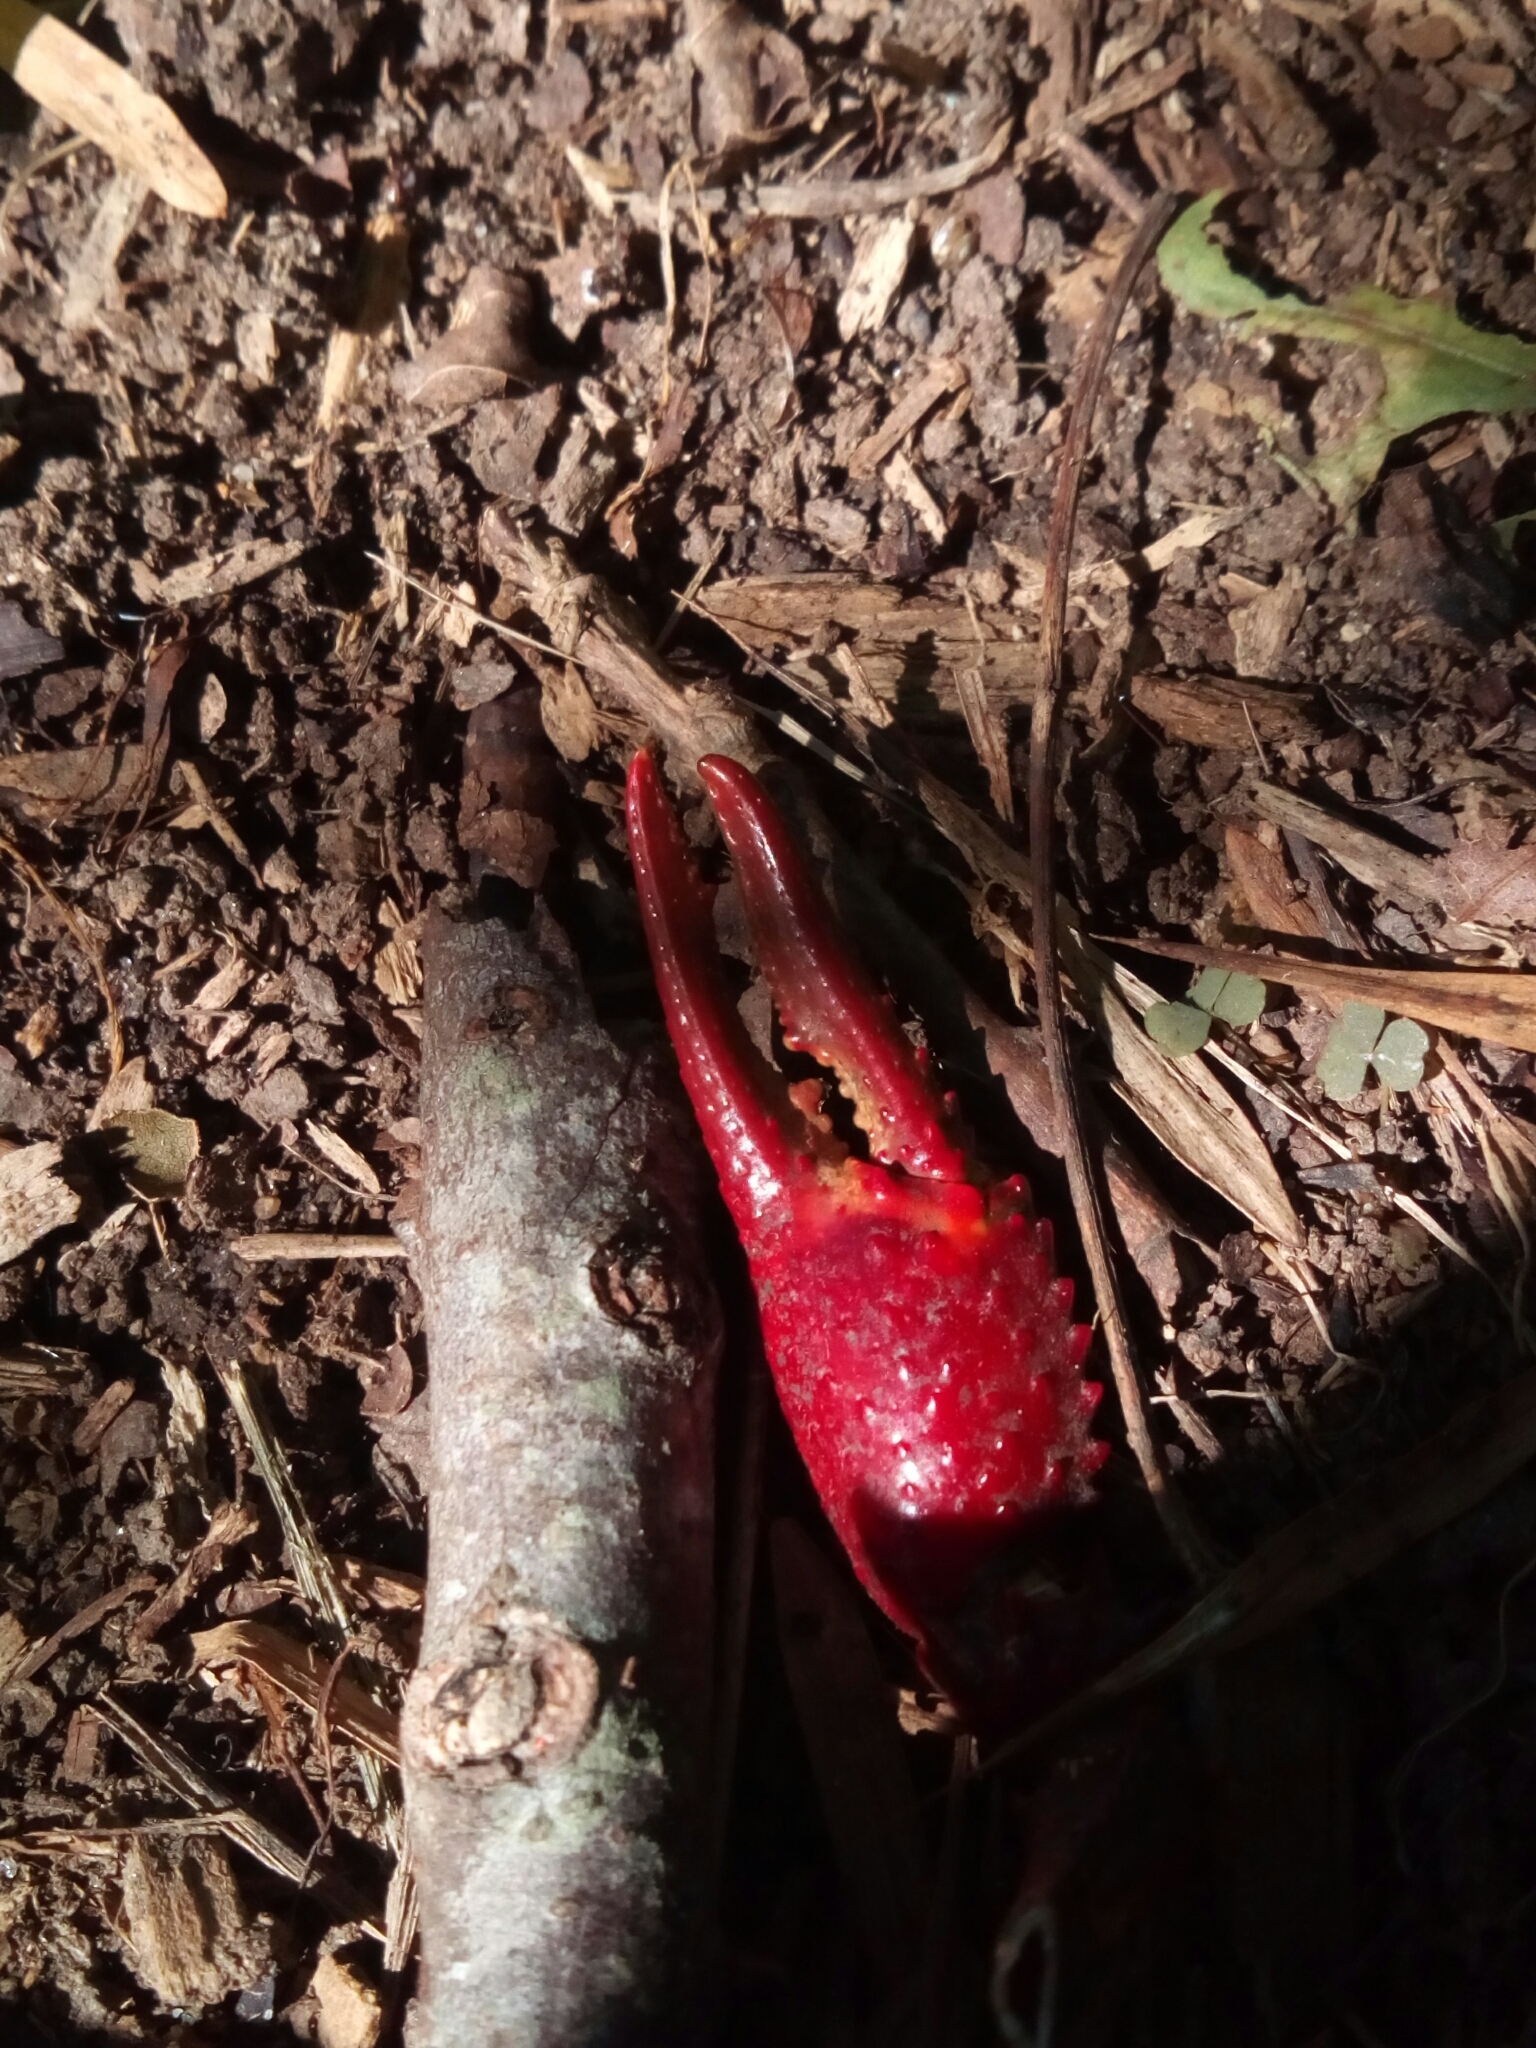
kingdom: Animalia
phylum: Arthropoda
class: Malacostraca
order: Decapoda
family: Cambaridae
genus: Procambarus
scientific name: Procambarus clarkii
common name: Red swamp crayfish
